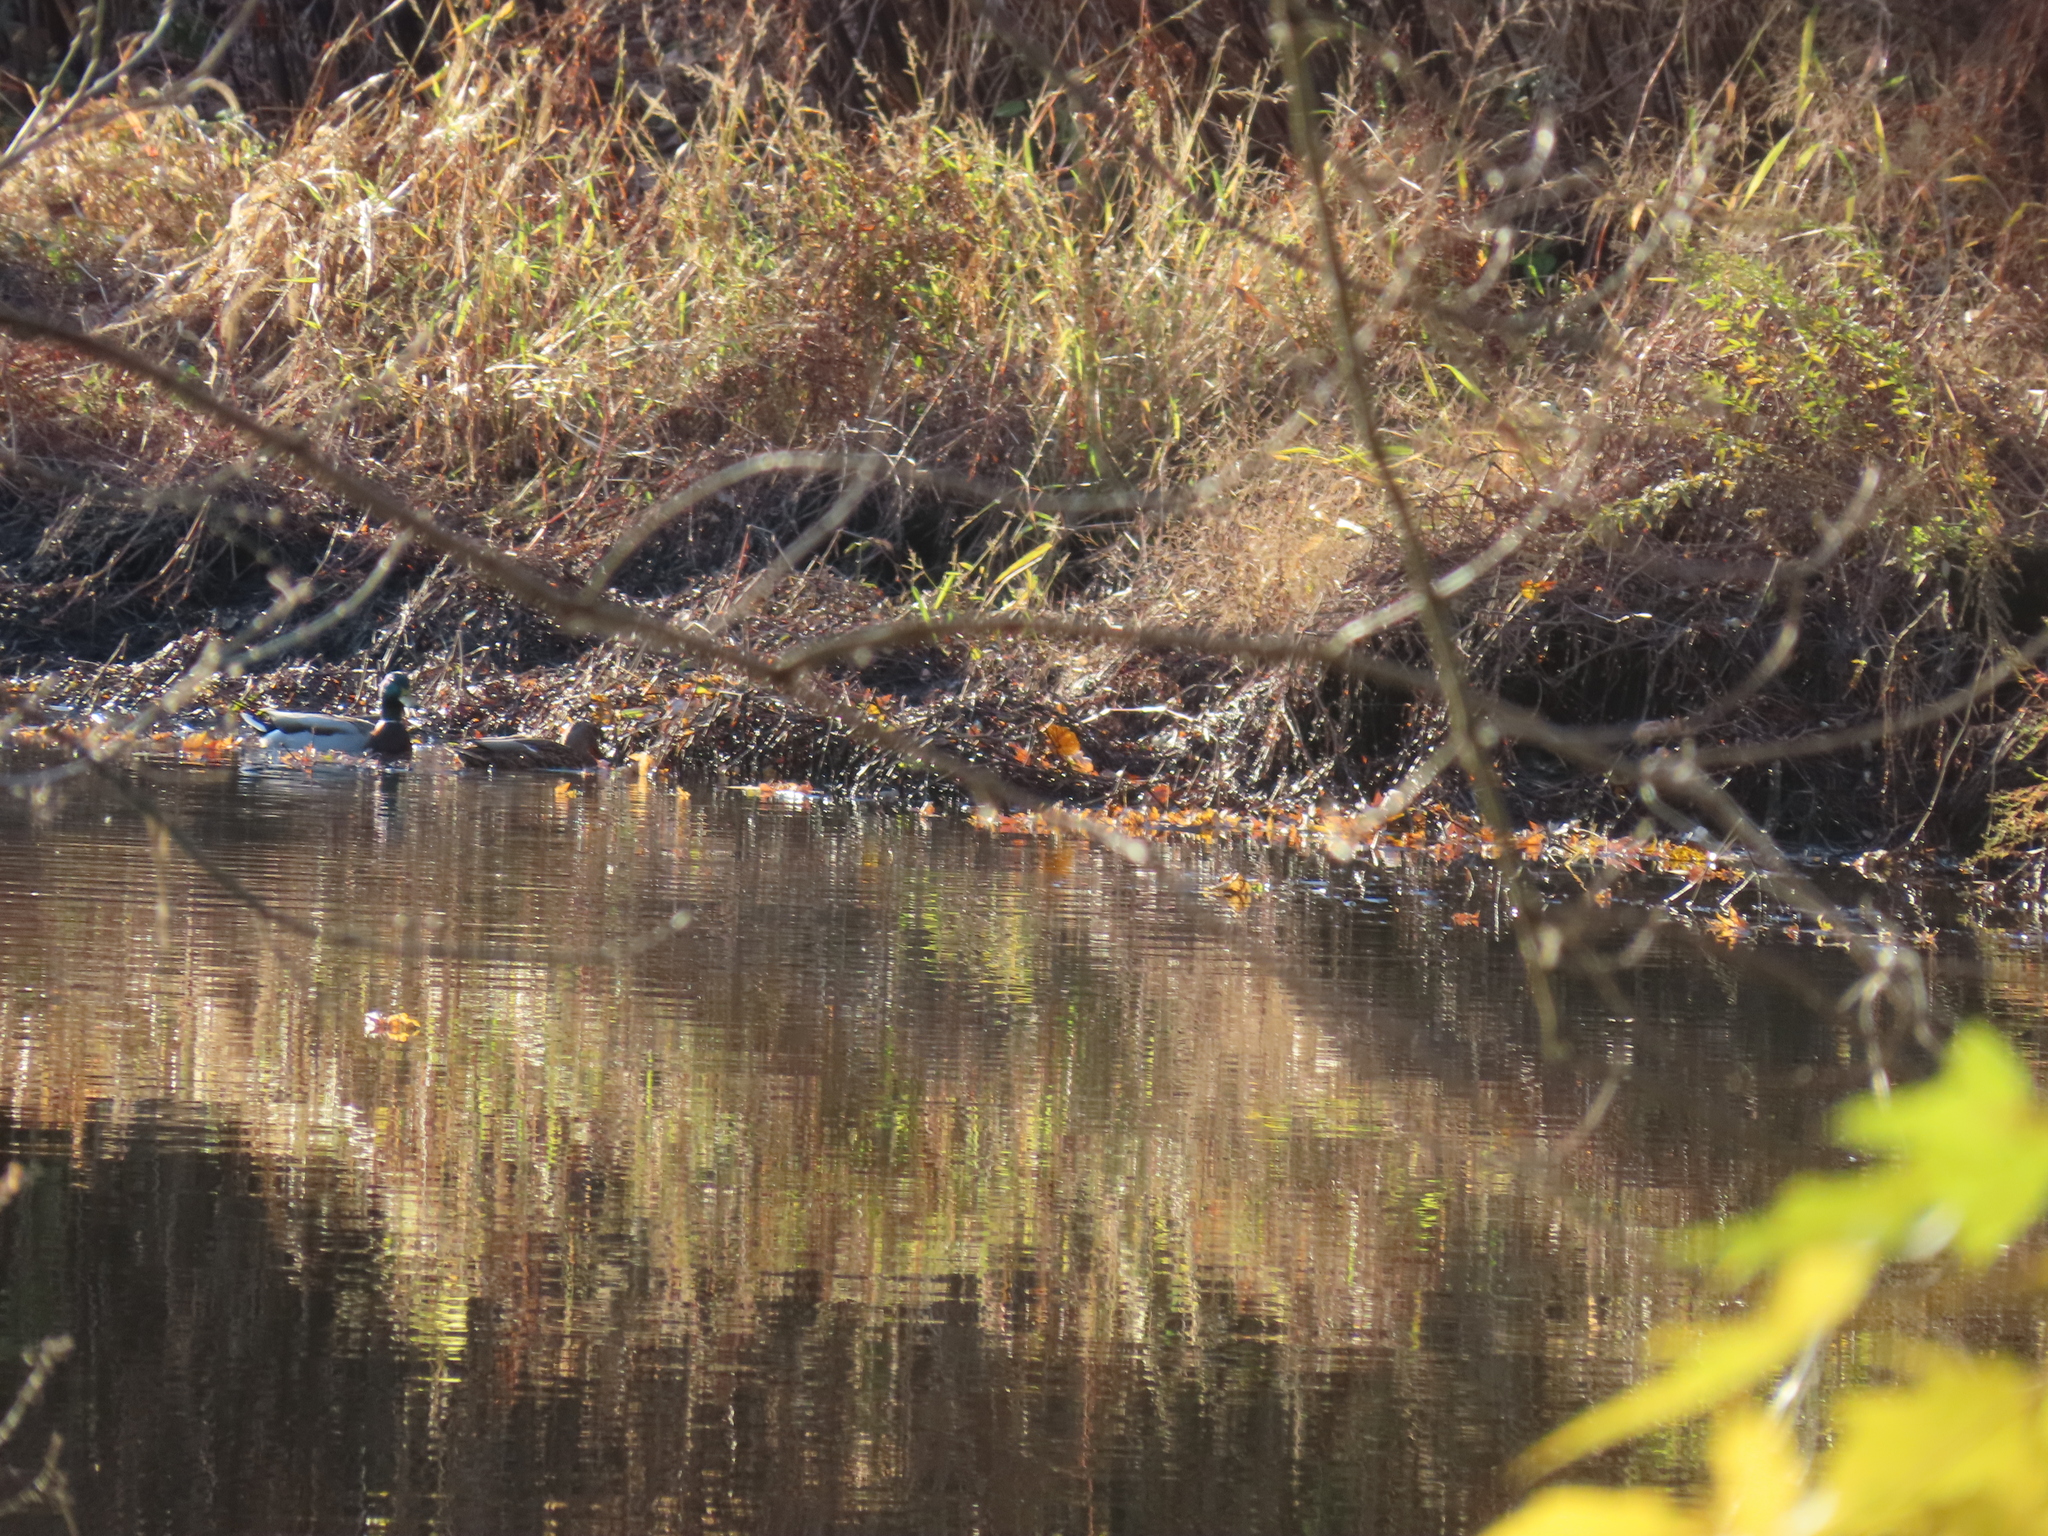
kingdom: Animalia
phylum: Chordata
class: Aves
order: Anseriformes
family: Anatidae
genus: Anas
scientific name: Anas platyrhynchos
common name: Mallard
